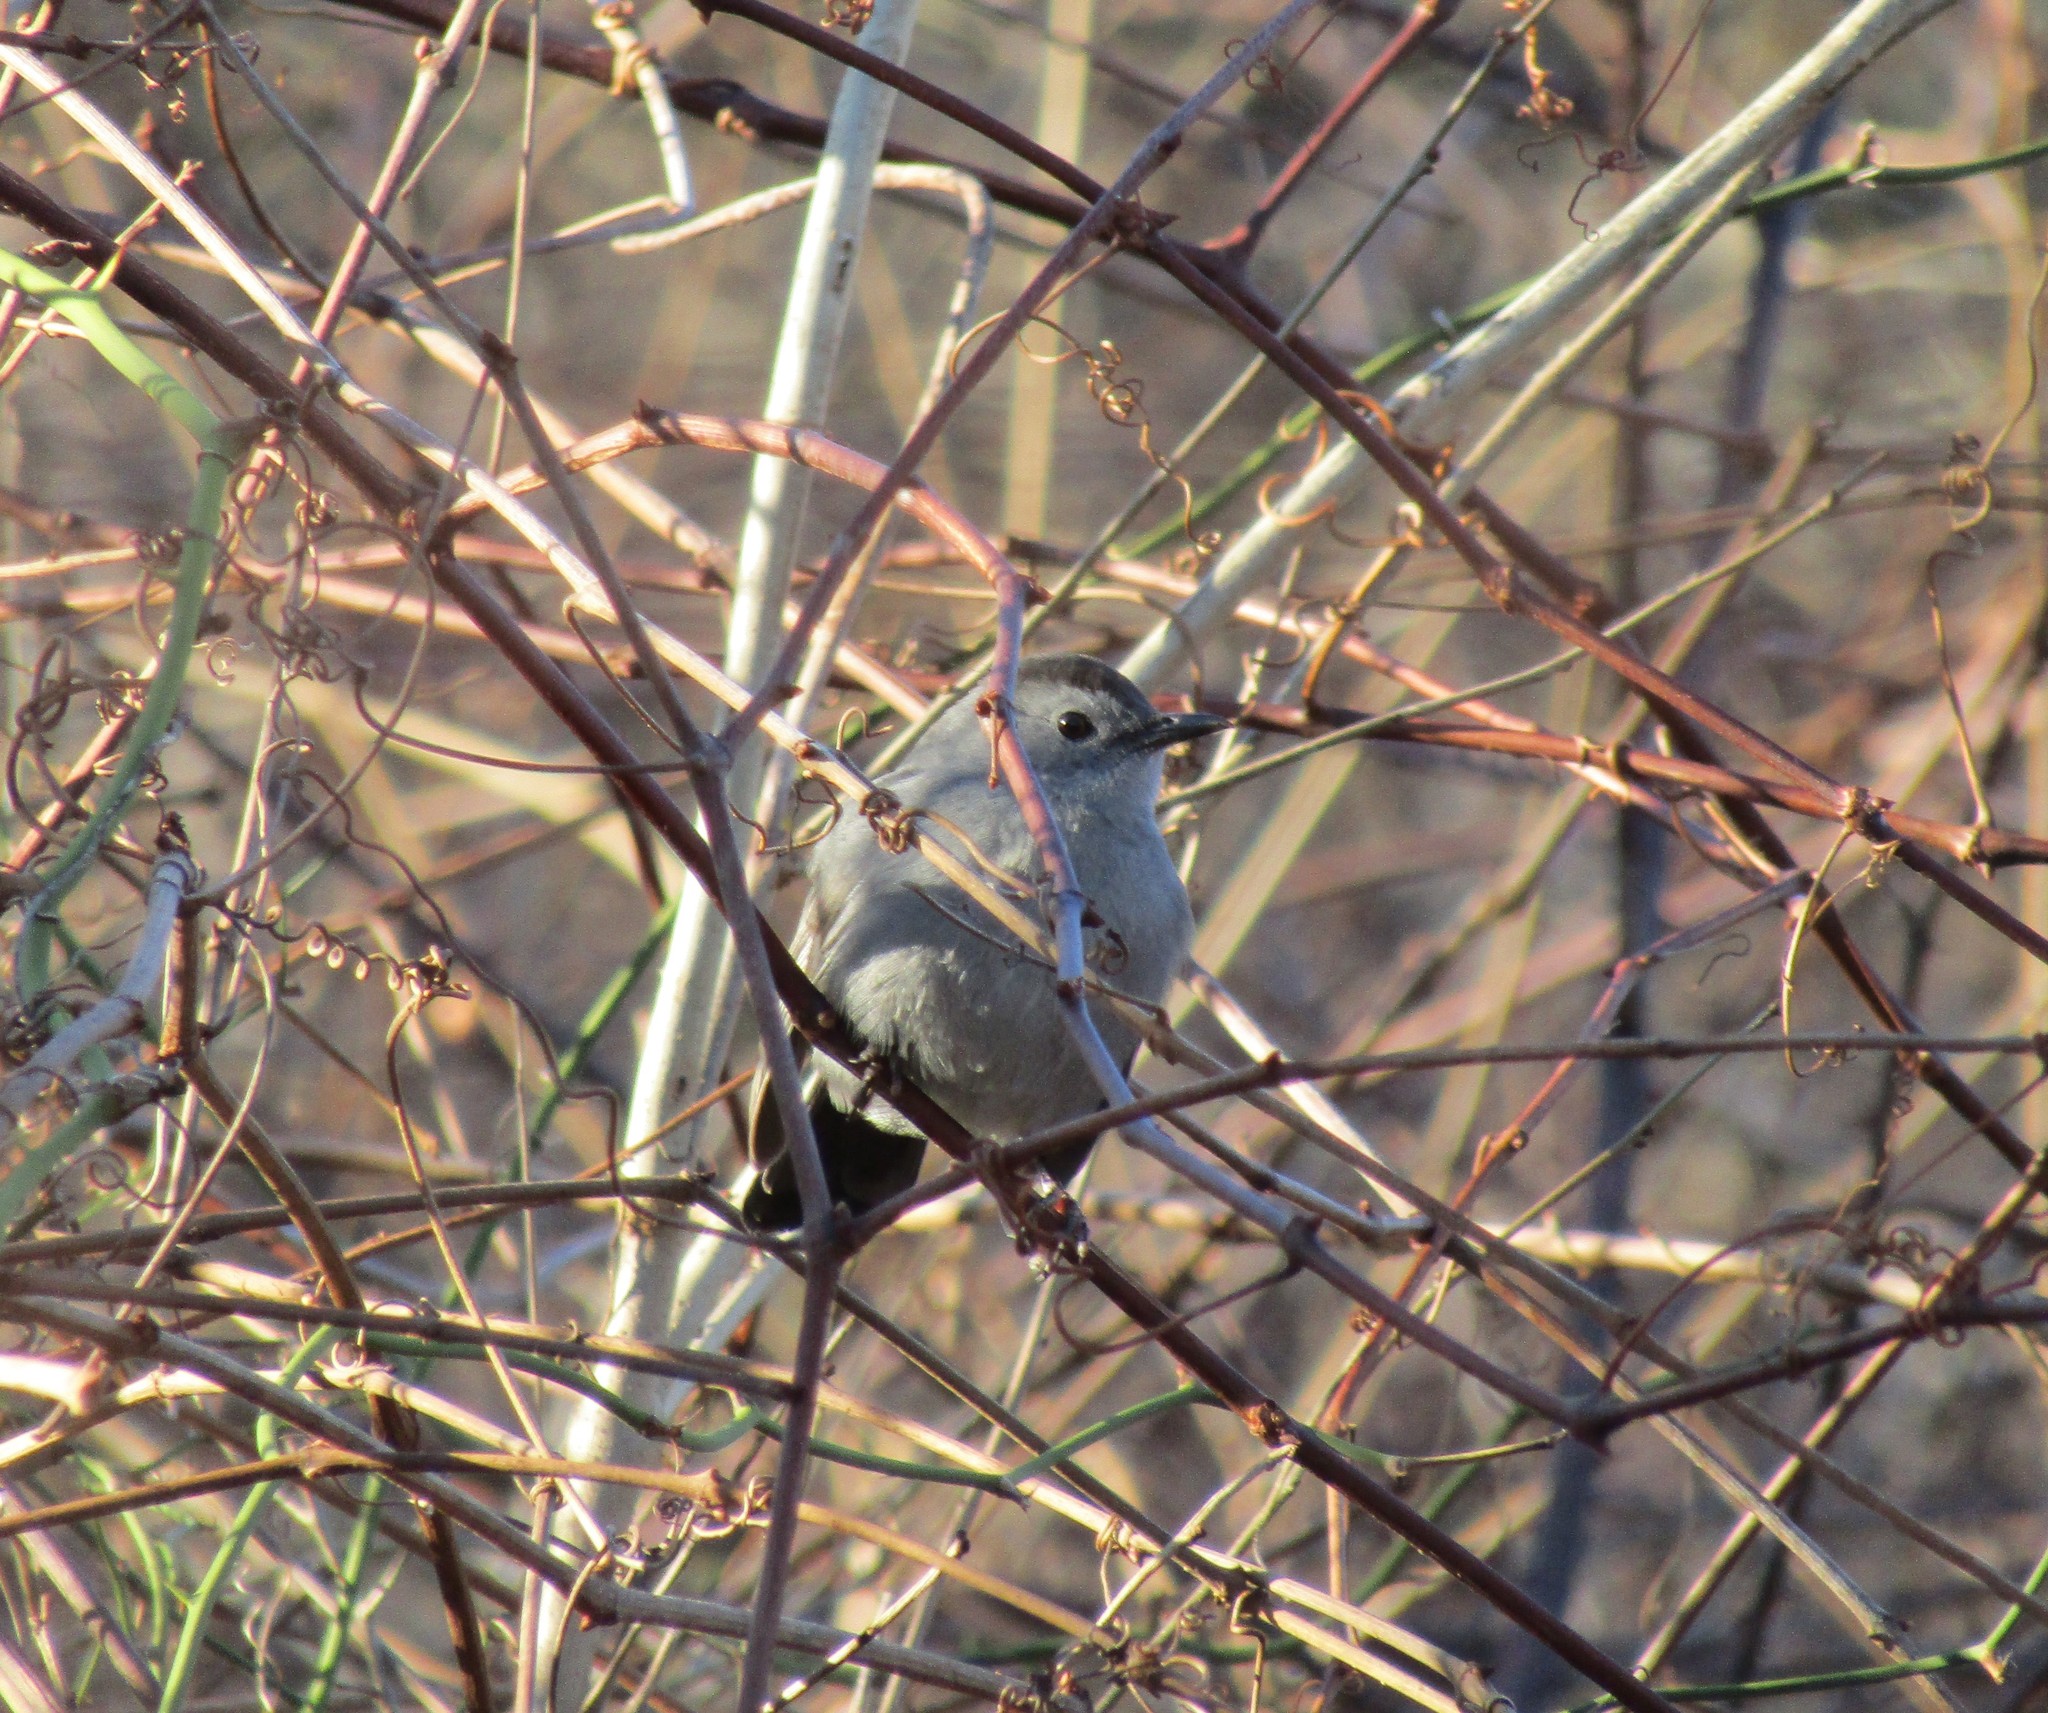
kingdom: Animalia
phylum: Chordata
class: Aves
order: Passeriformes
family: Mimidae
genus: Dumetella
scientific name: Dumetella carolinensis
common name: Gray catbird
